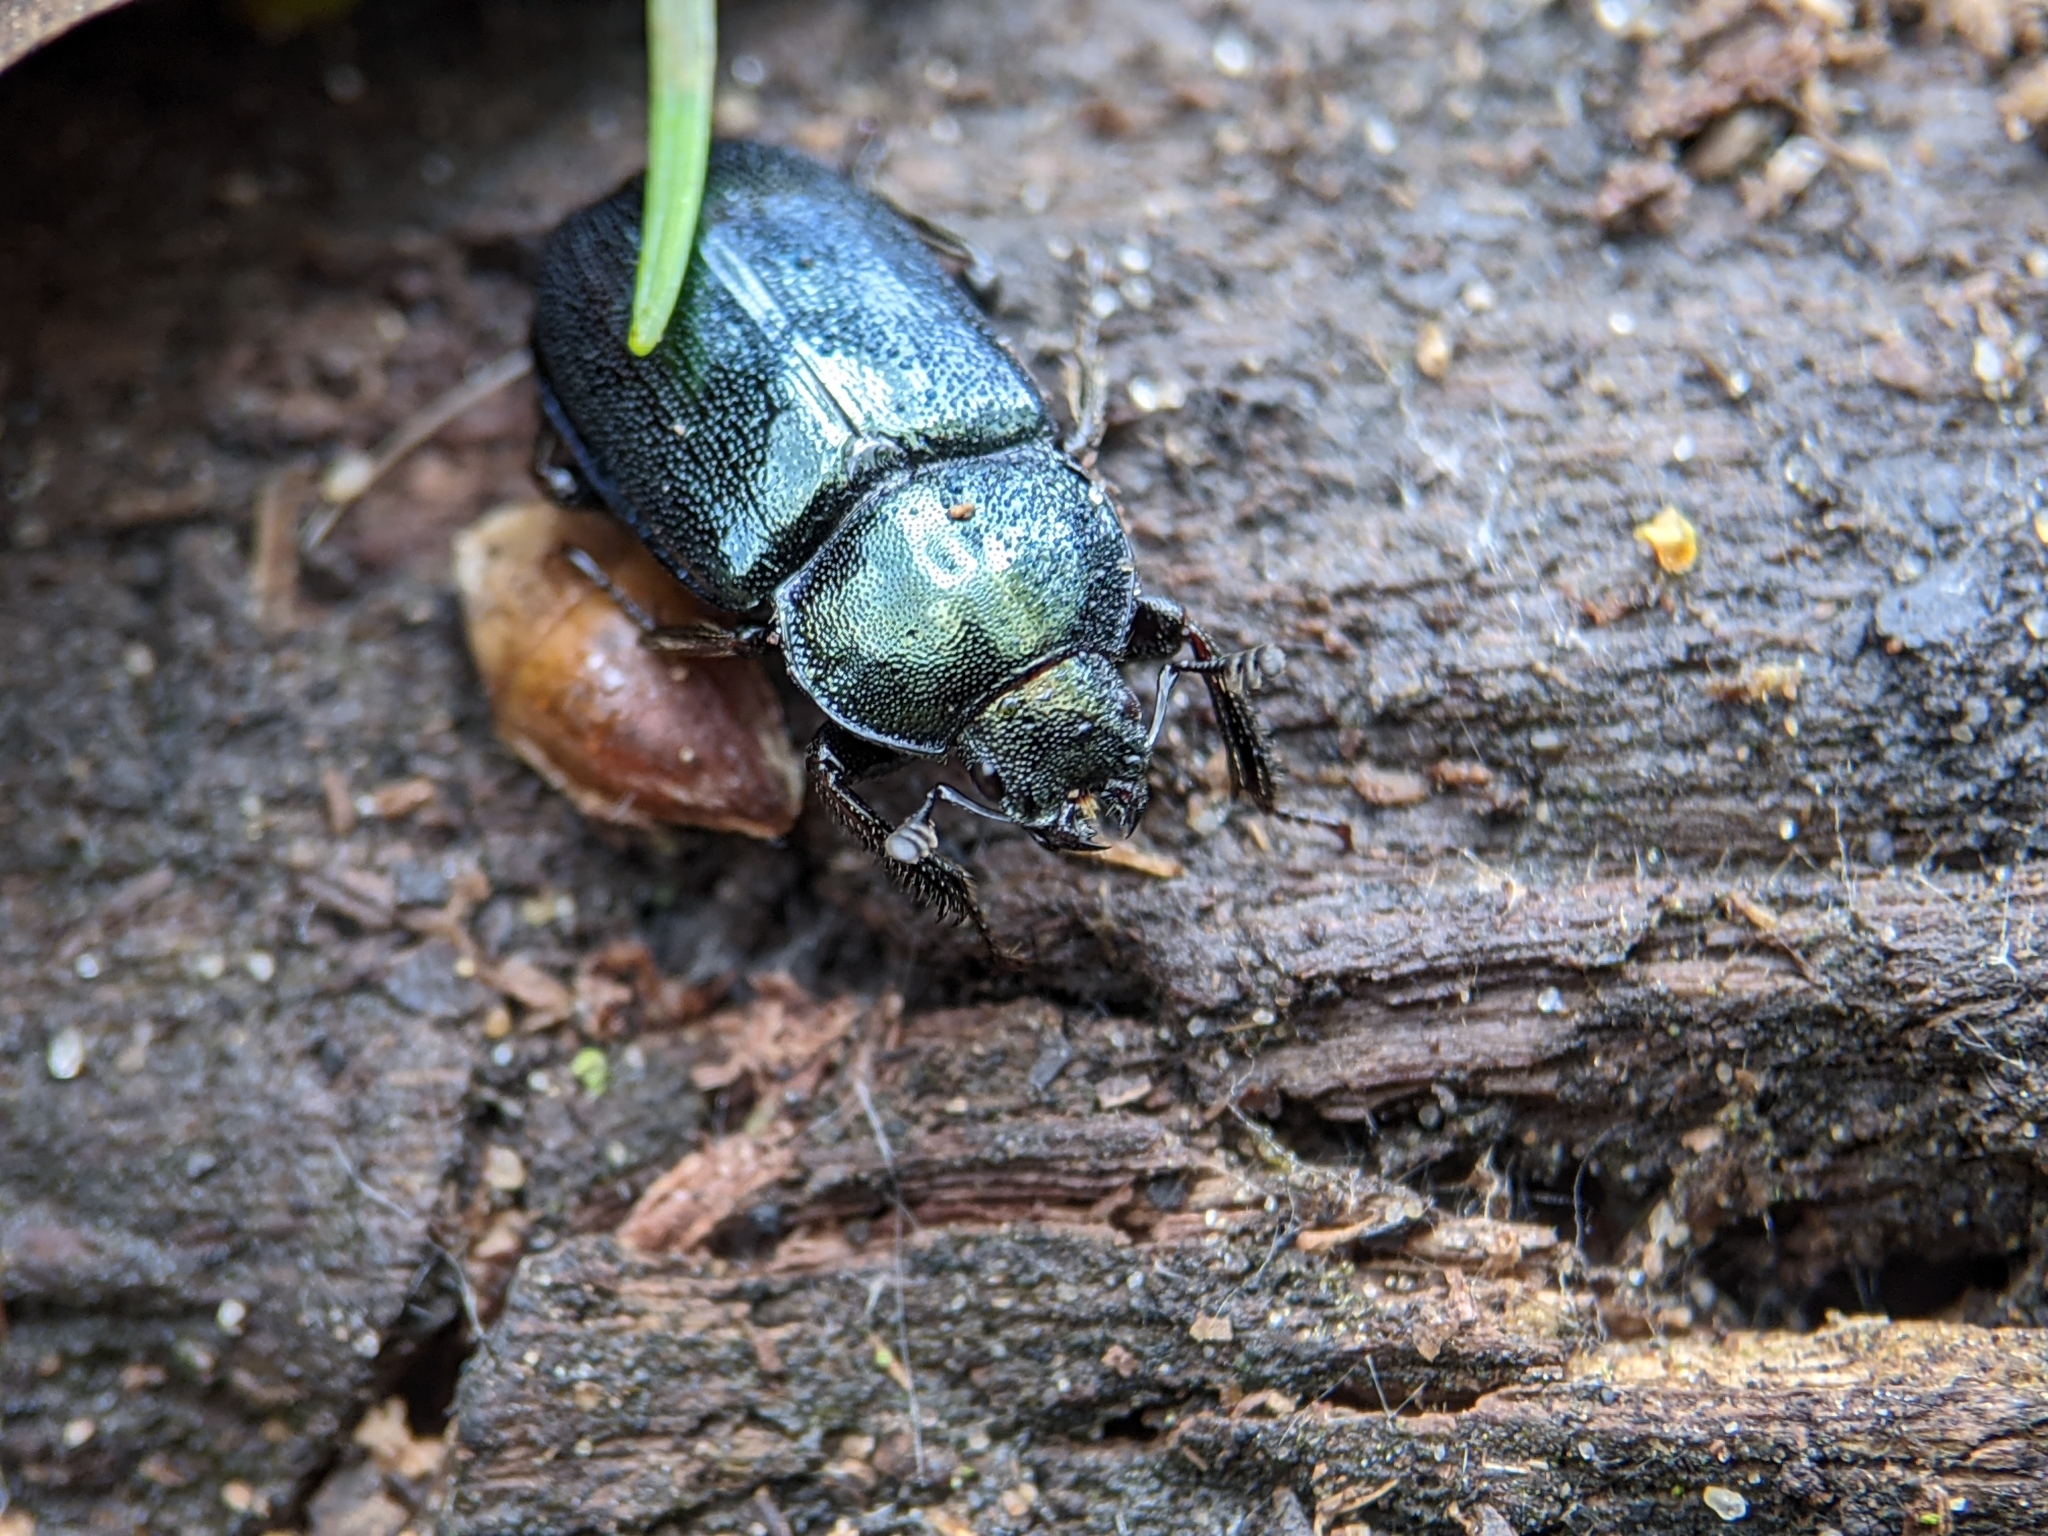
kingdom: Animalia
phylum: Arthropoda
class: Insecta
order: Coleoptera
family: Lucanidae
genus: Platycerus
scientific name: Platycerus caraboides
